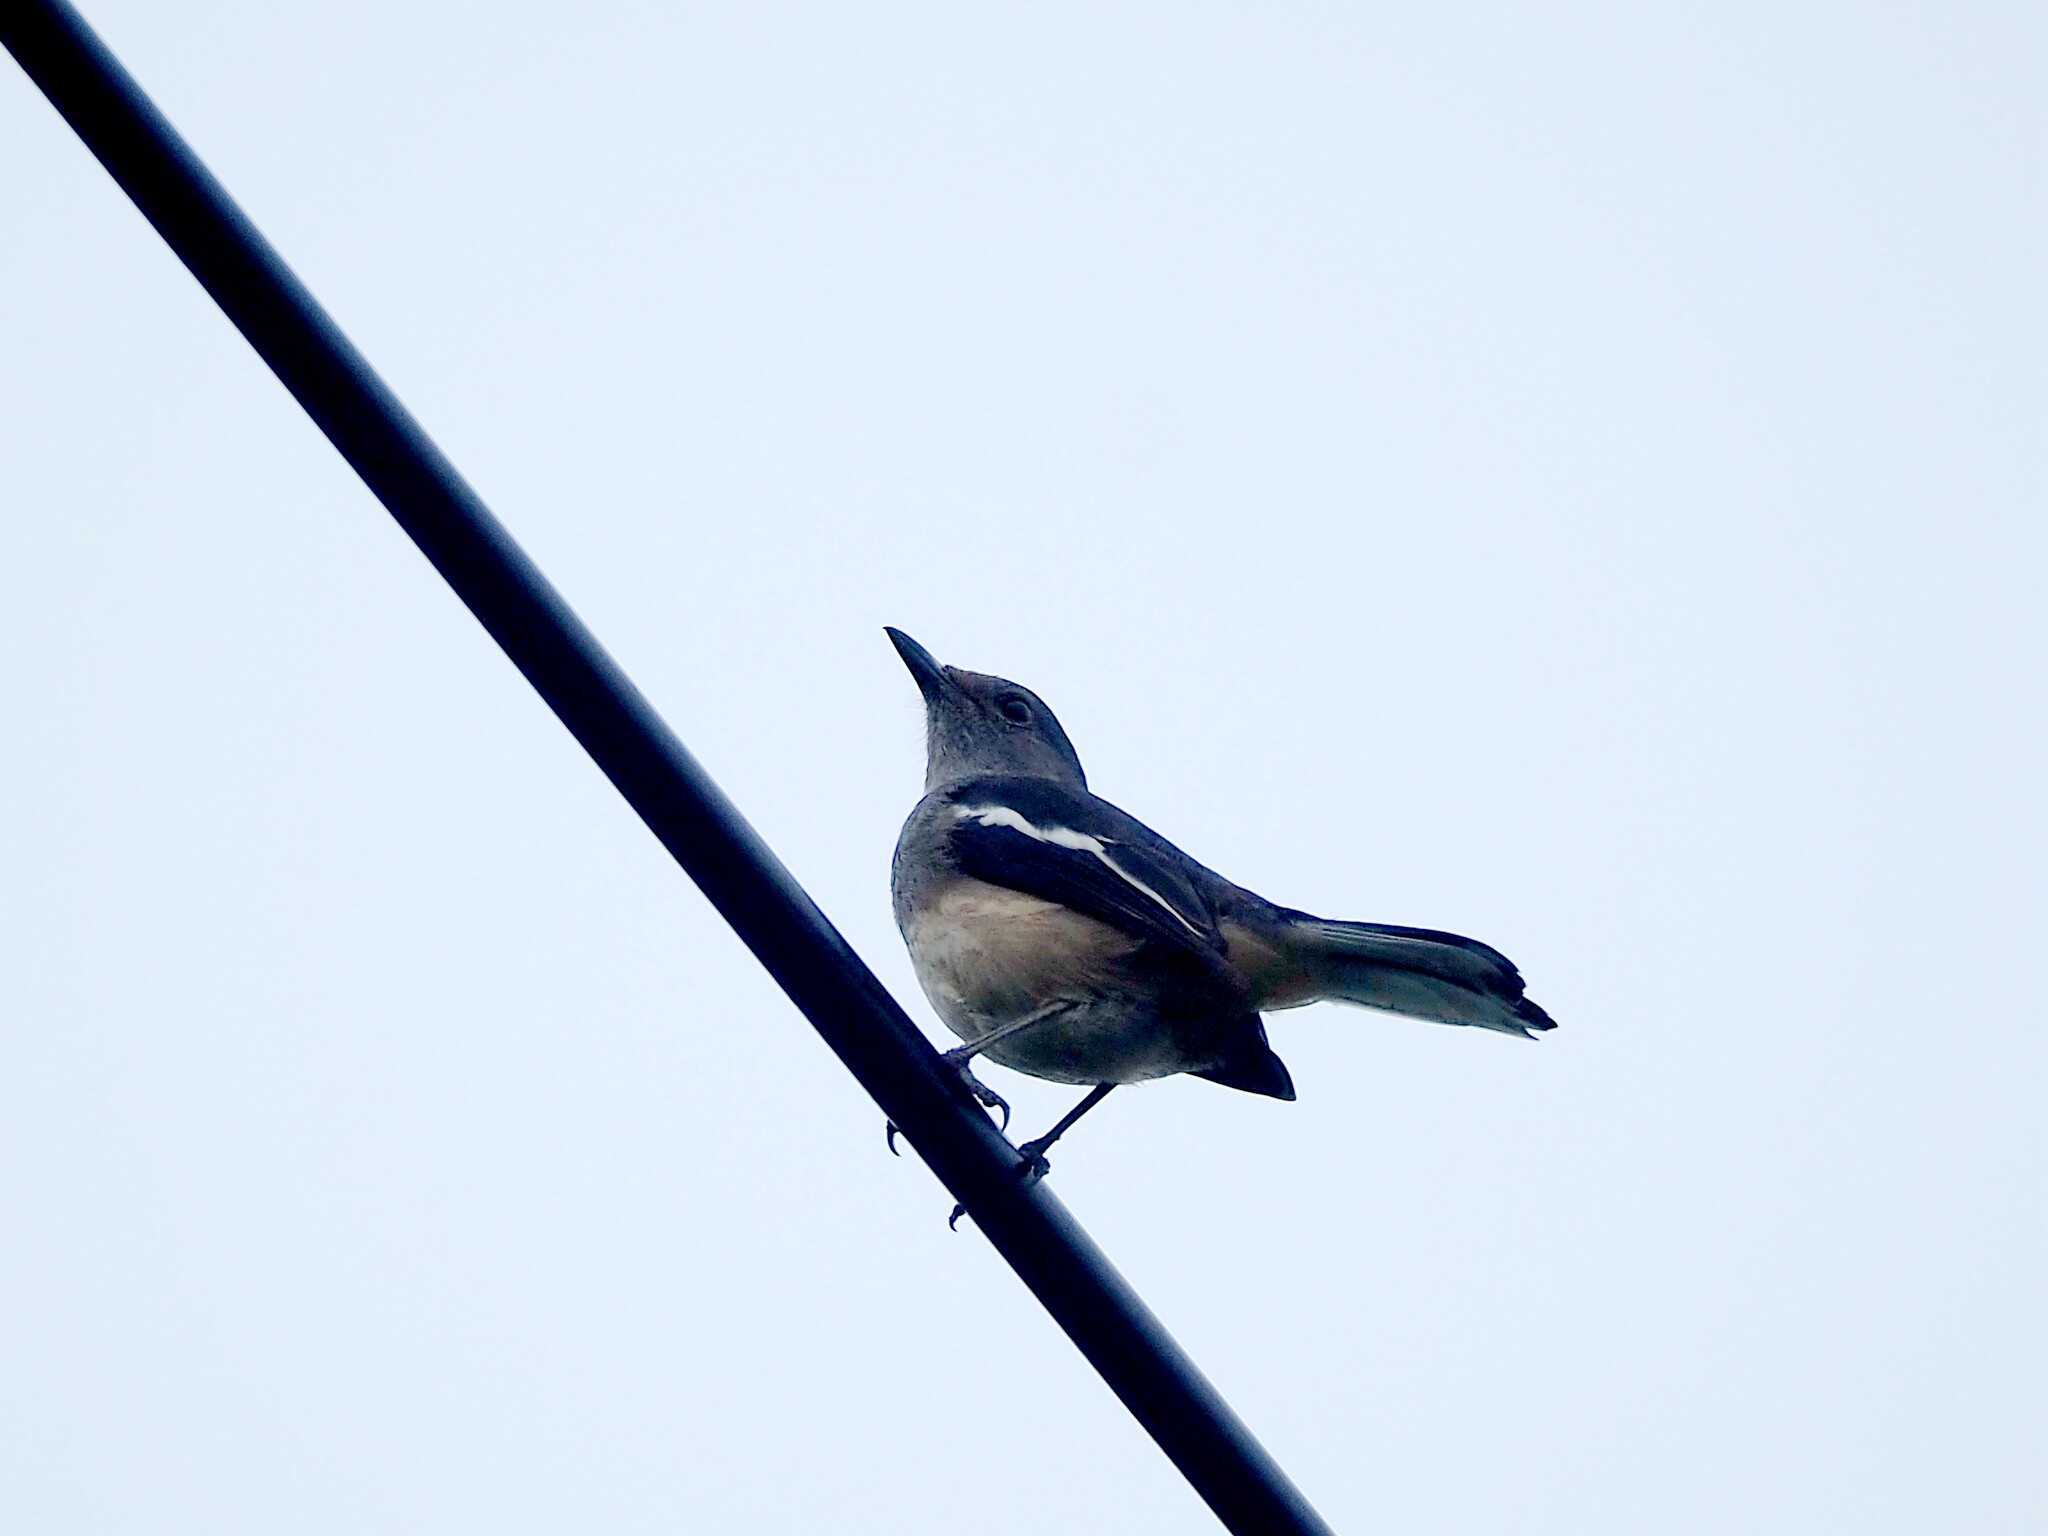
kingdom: Animalia
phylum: Chordata
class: Aves
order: Passeriformes
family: Muscicapidae
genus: Copsychus
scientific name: Copsychus saularis
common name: Oriental magpie-robin
